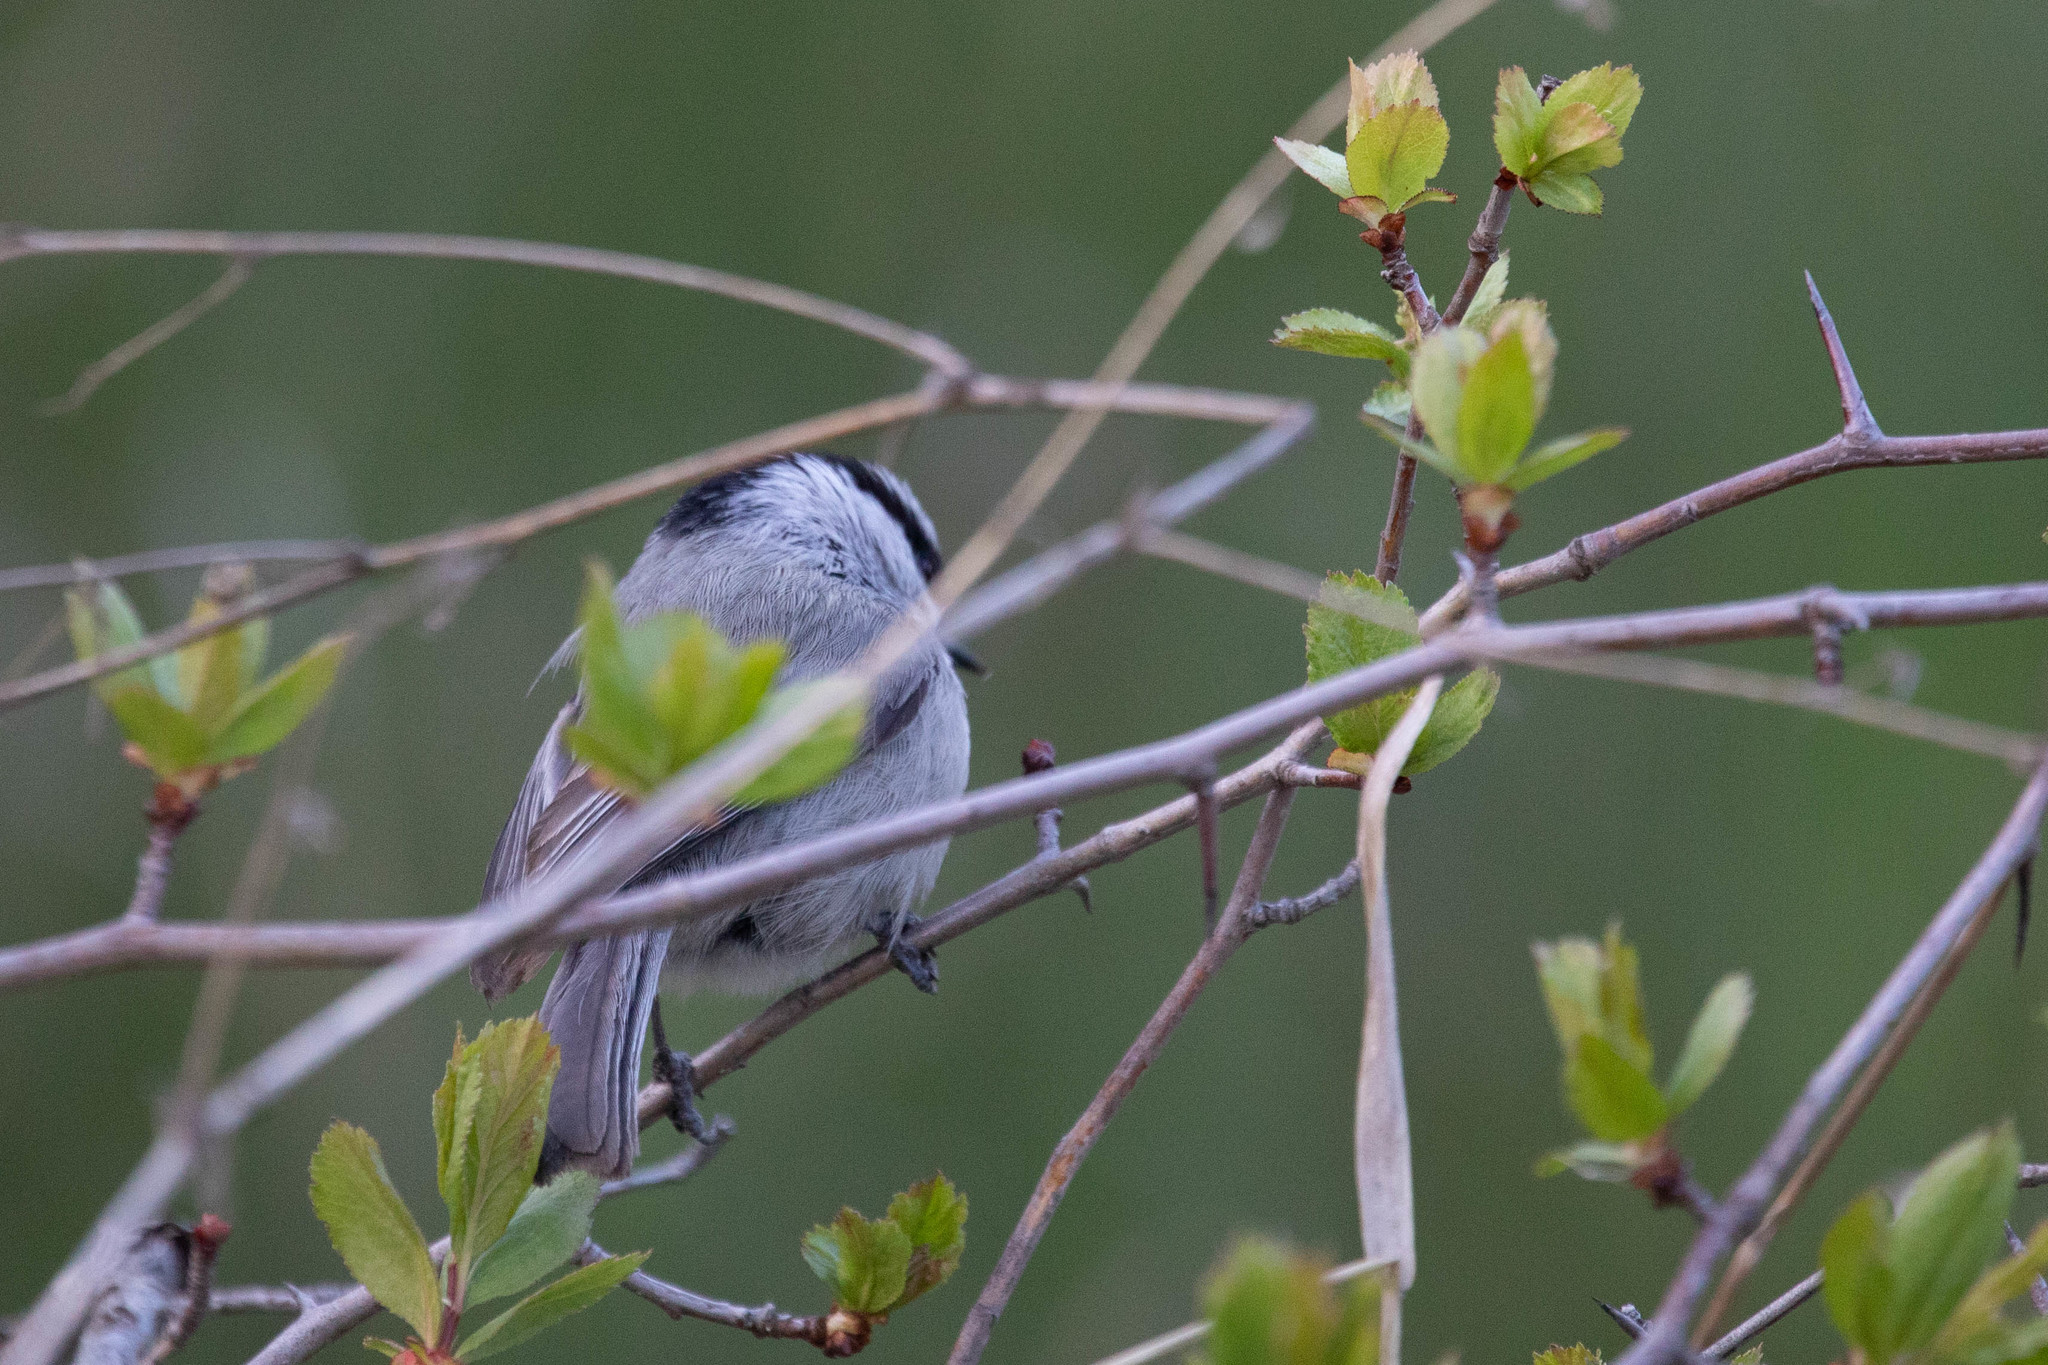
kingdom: Animalia
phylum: Chordata
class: Aves
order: Passeriformes
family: Paridae
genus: Poecile
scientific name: Poecile gambeli
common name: Mountain chickadee
